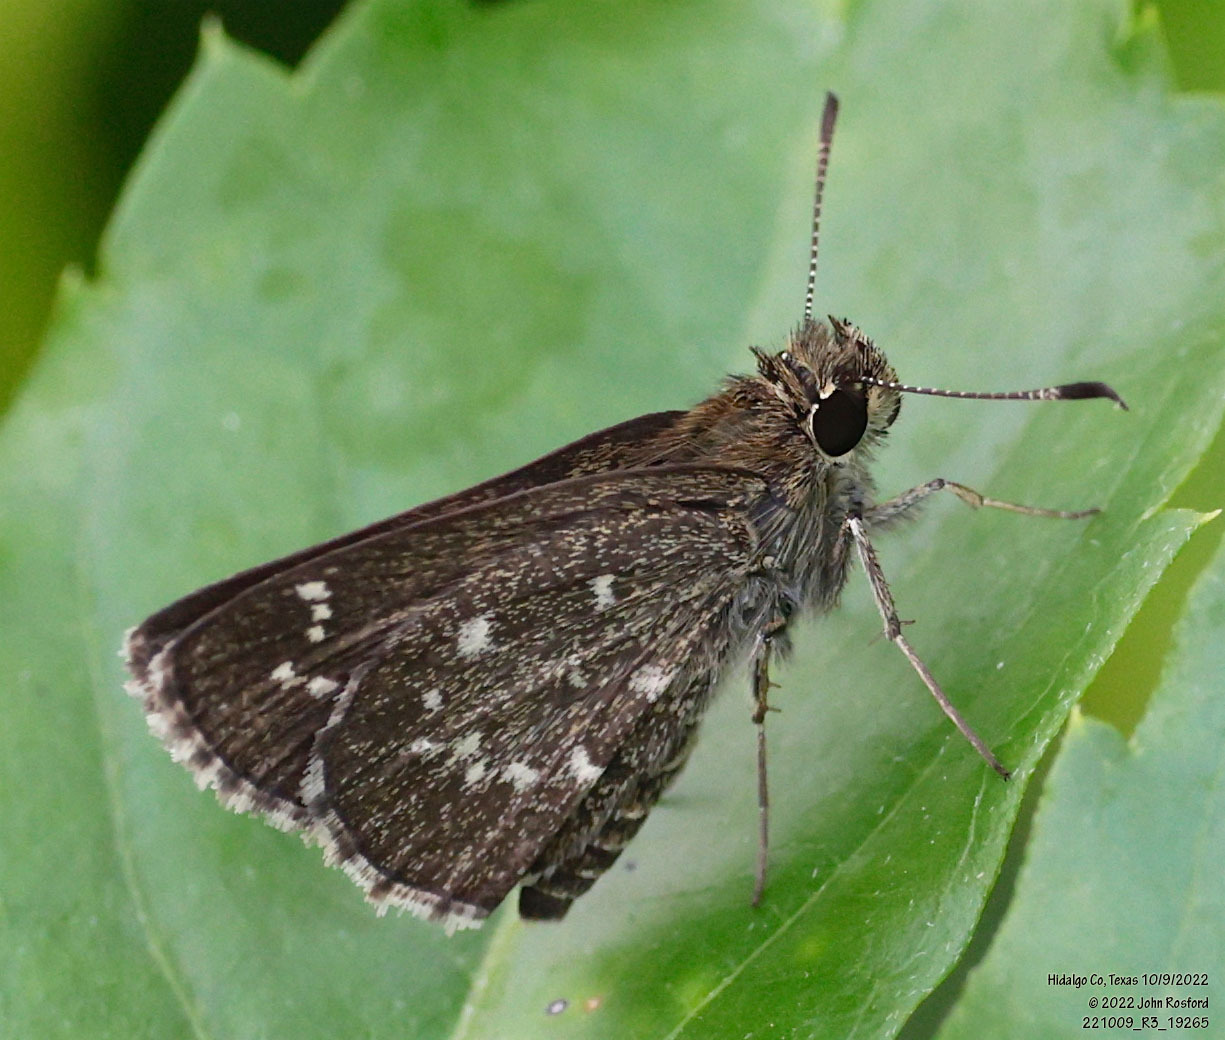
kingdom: Animalia
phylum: Arthropoda
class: Insecta
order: Lepidoptera
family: Hesperiidae
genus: Mastor
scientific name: Mastor celia
